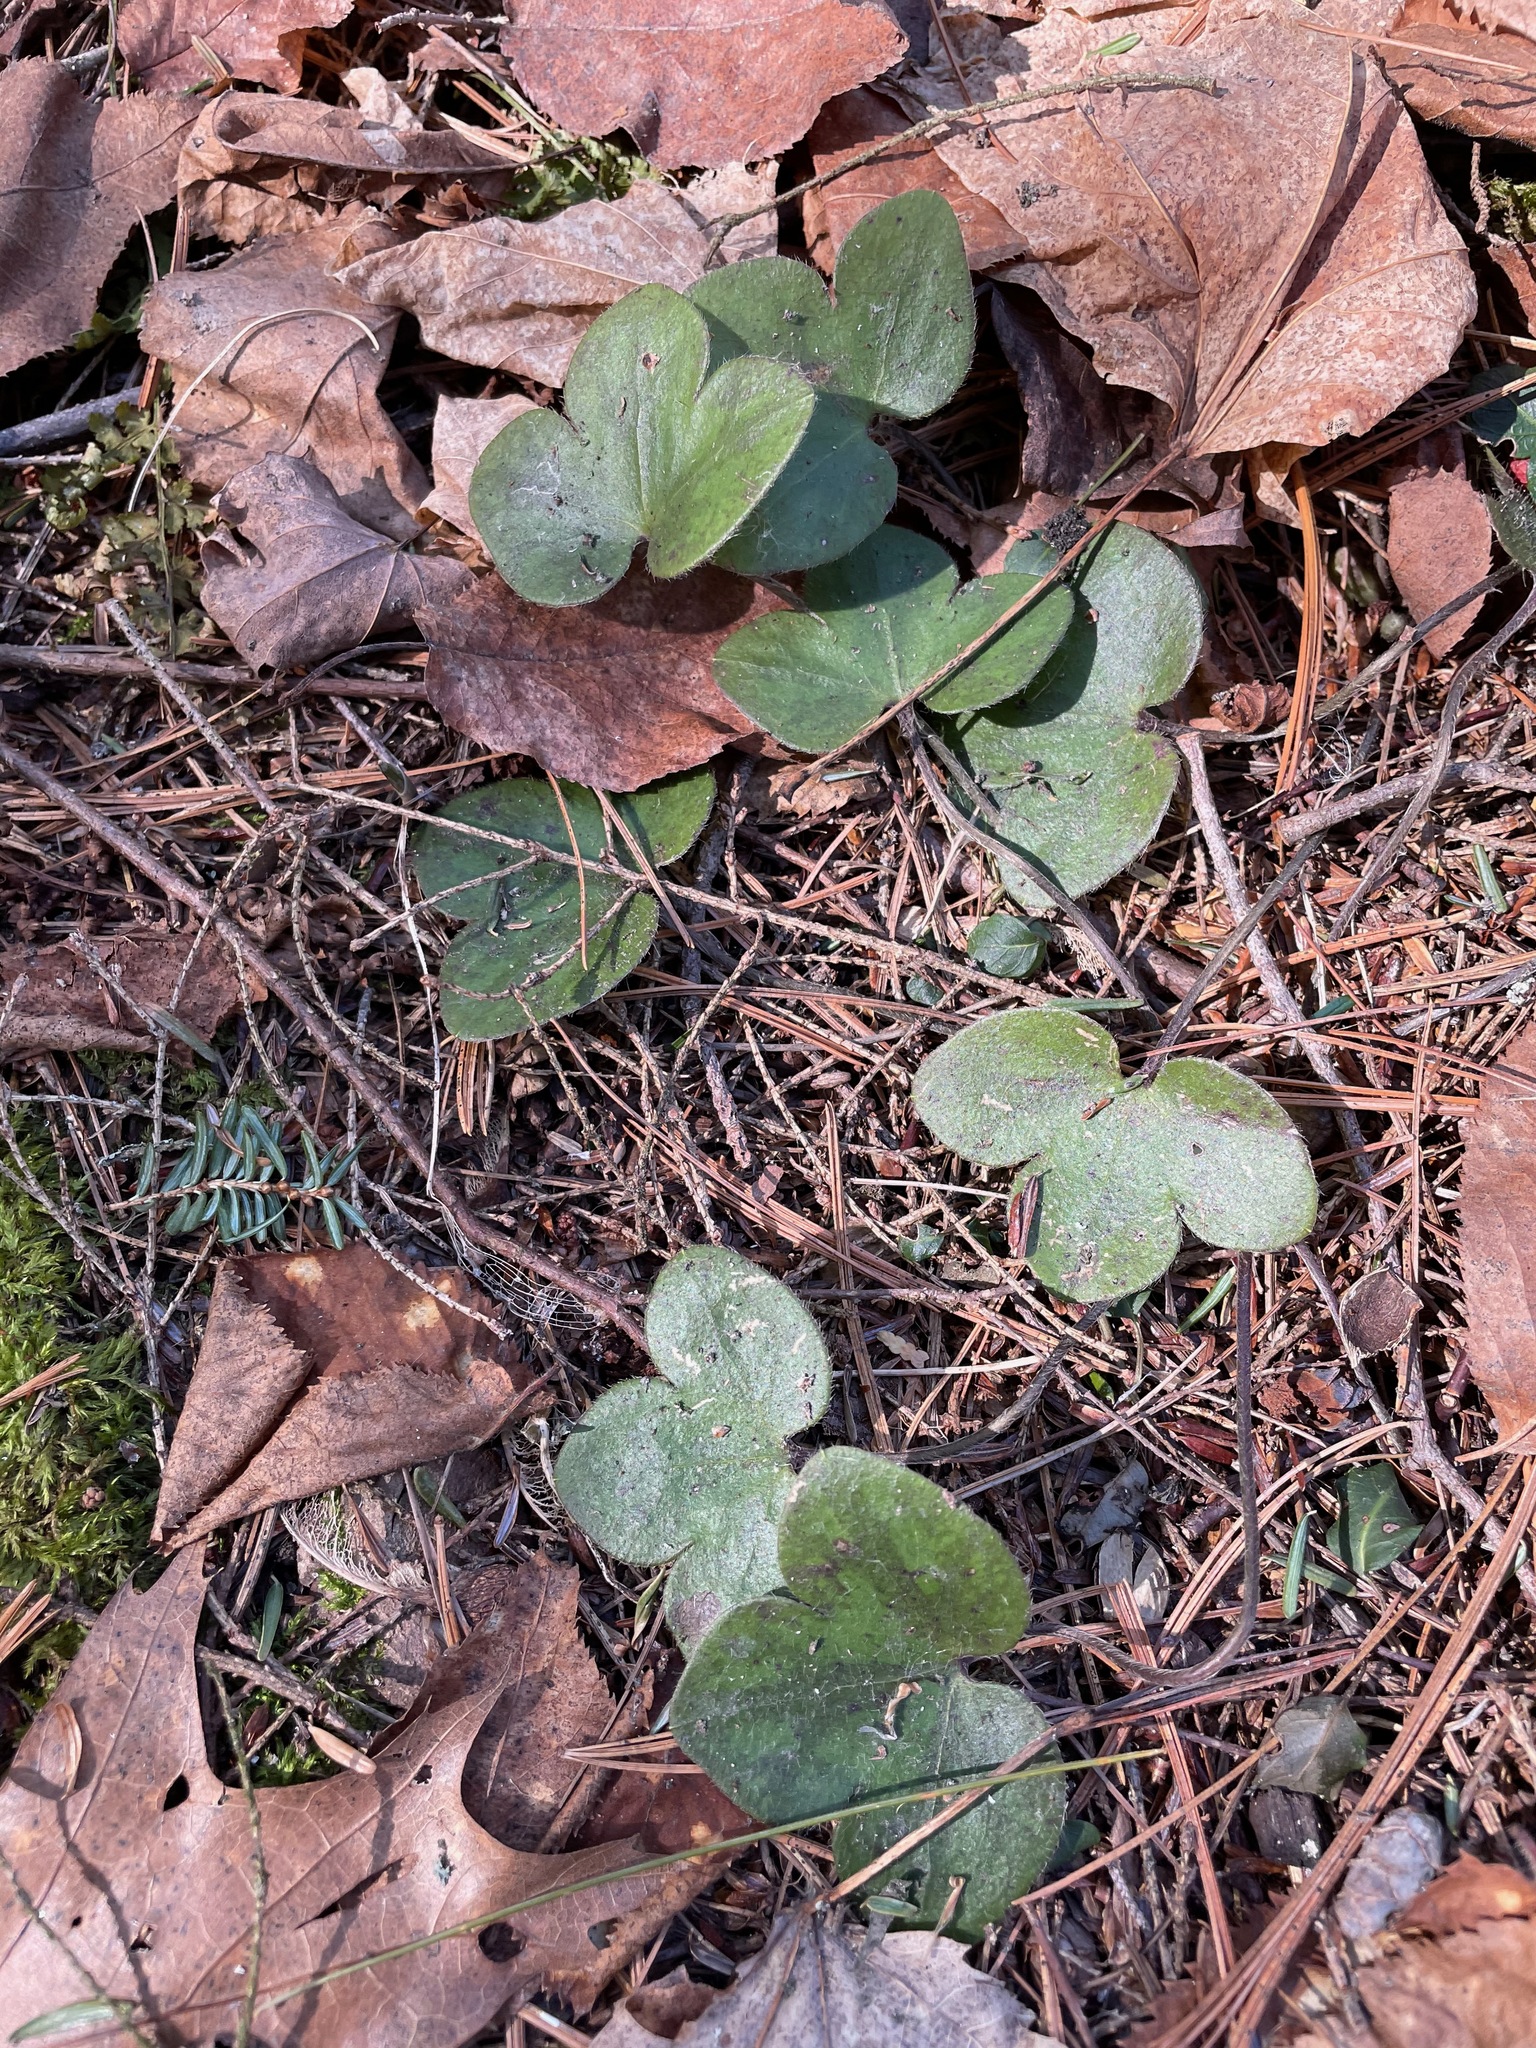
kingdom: Plantae
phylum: Tracheophyta
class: Magnoliopsida
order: Ranunculales
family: Ranunculaceae
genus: Hepatica
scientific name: Hepatica americana
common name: American hepatica
